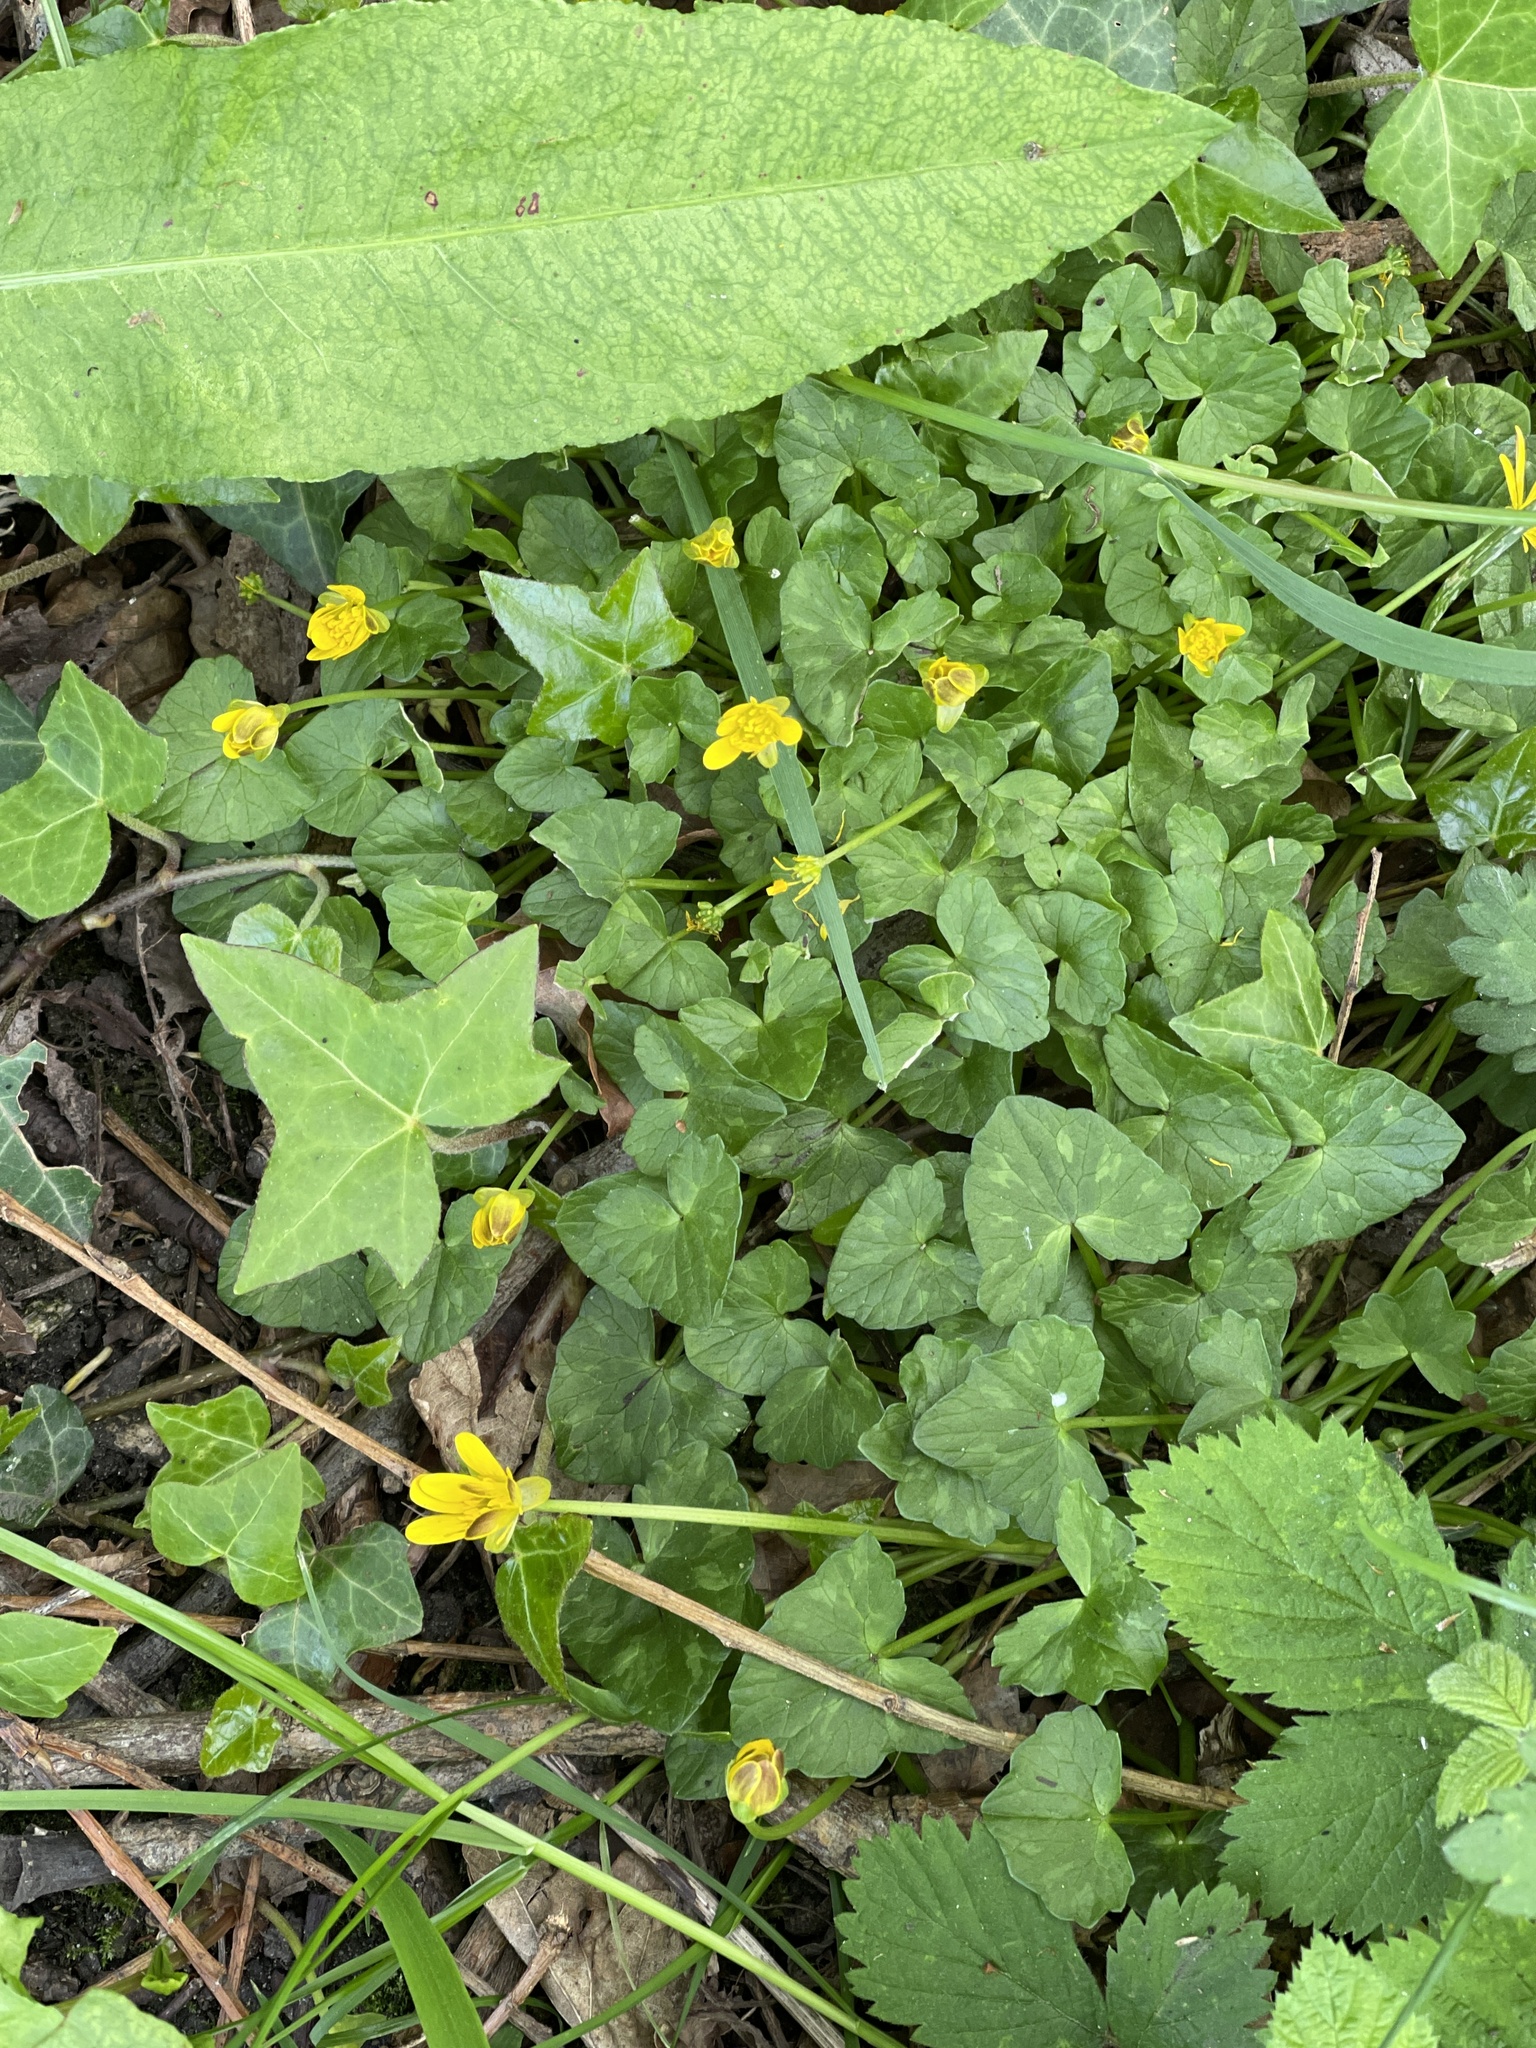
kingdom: Plantae
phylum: Tracheophyta
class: Magnoliopsida
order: Ranunculales
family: Ranunculaceae
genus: Ficaria
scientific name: Ficaria verna
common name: Lesser celandine
